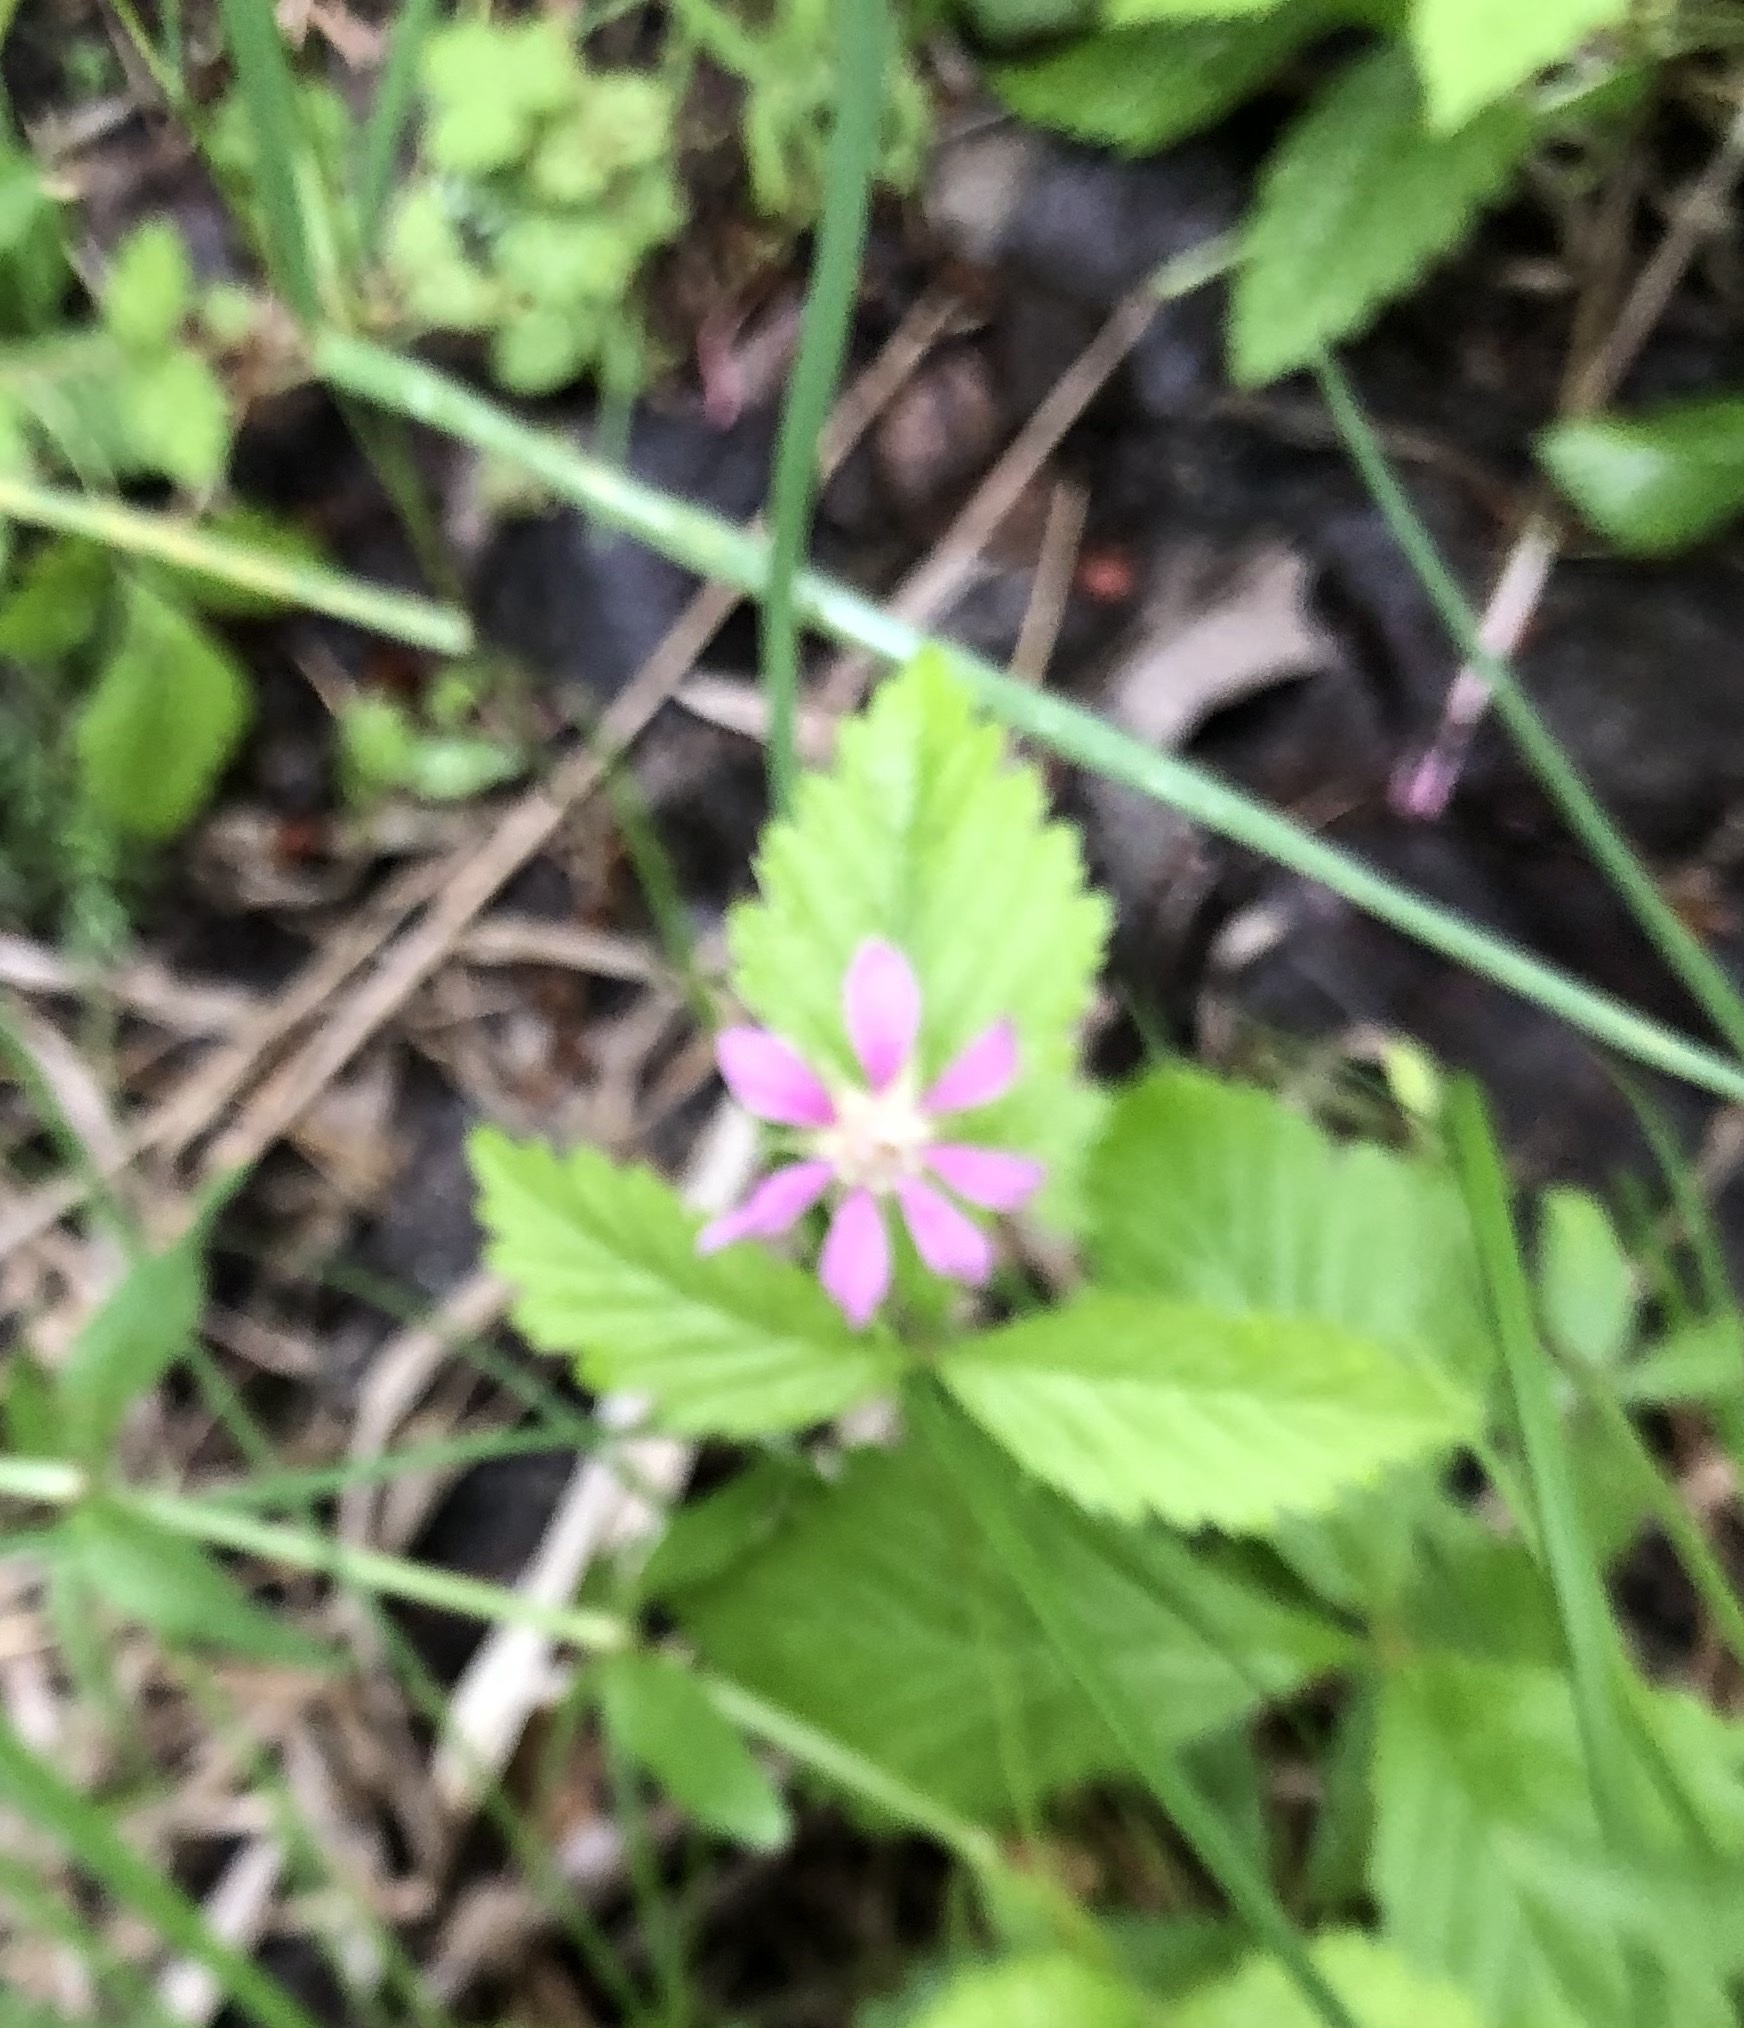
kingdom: Plantae
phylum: Tracheophyta
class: Magnoliopsida
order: Rosales
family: Rosaceae
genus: Rubus
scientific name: Rubus arcticus
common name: Arctic bramble
